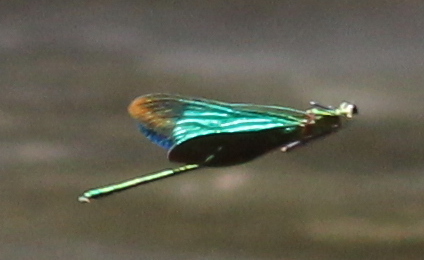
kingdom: Animalia
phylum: Arthropoda
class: Insecta
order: Odonata
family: Calopterygidae
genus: Neurobasis
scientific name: Neurobasis chinensis
